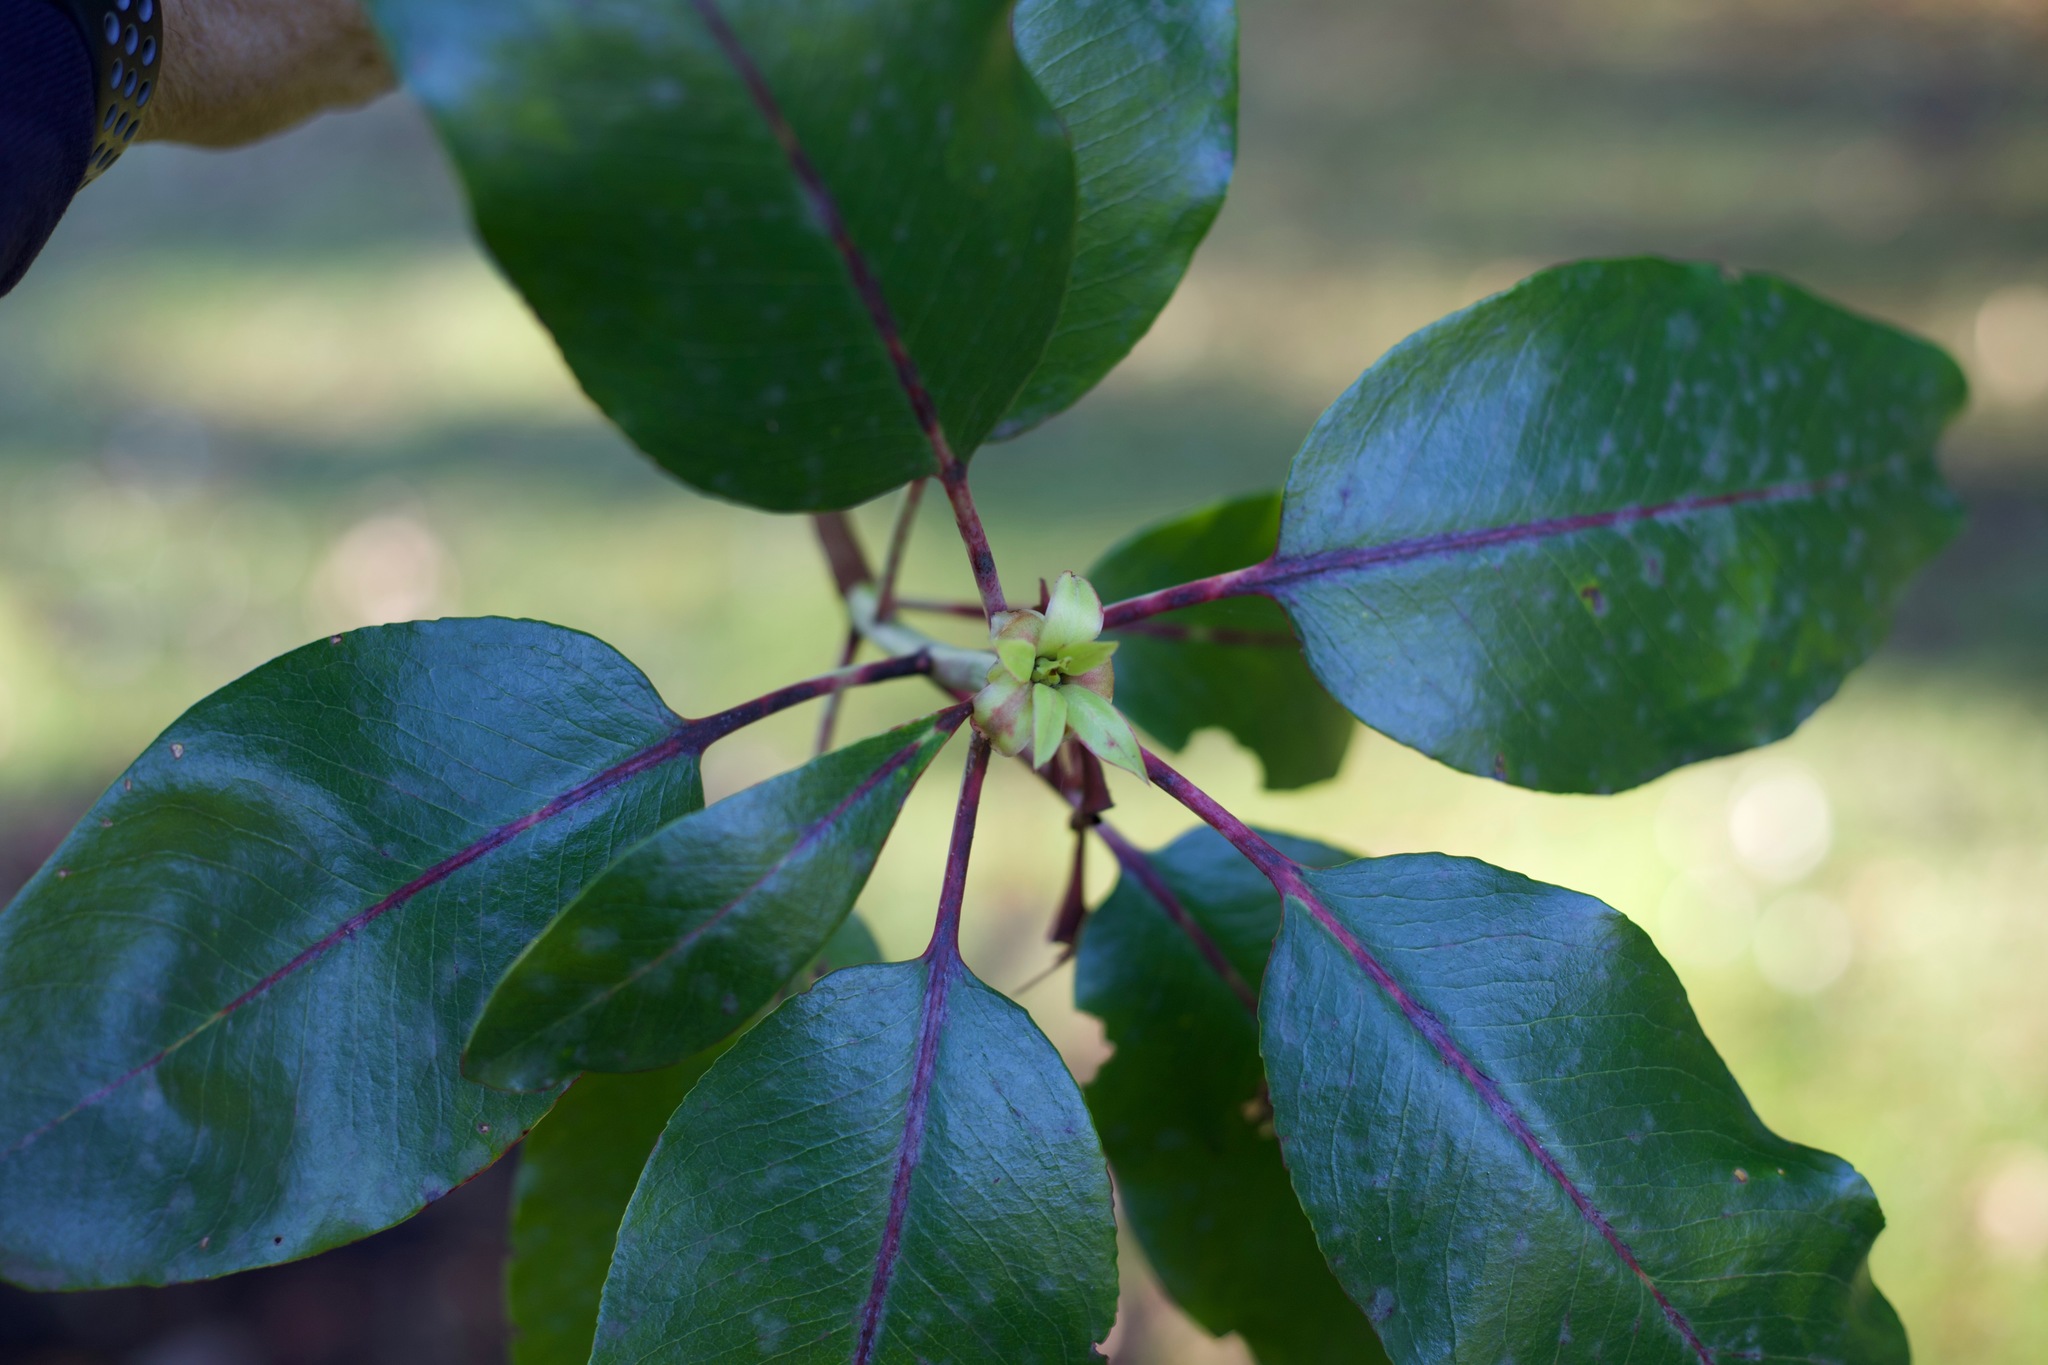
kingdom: Plantae
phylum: Tracheophyta
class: Magnoliopsida
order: Ericales
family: Ericaceae
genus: Arbutus
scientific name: Arbutus menziesii
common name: Pacific madrone
